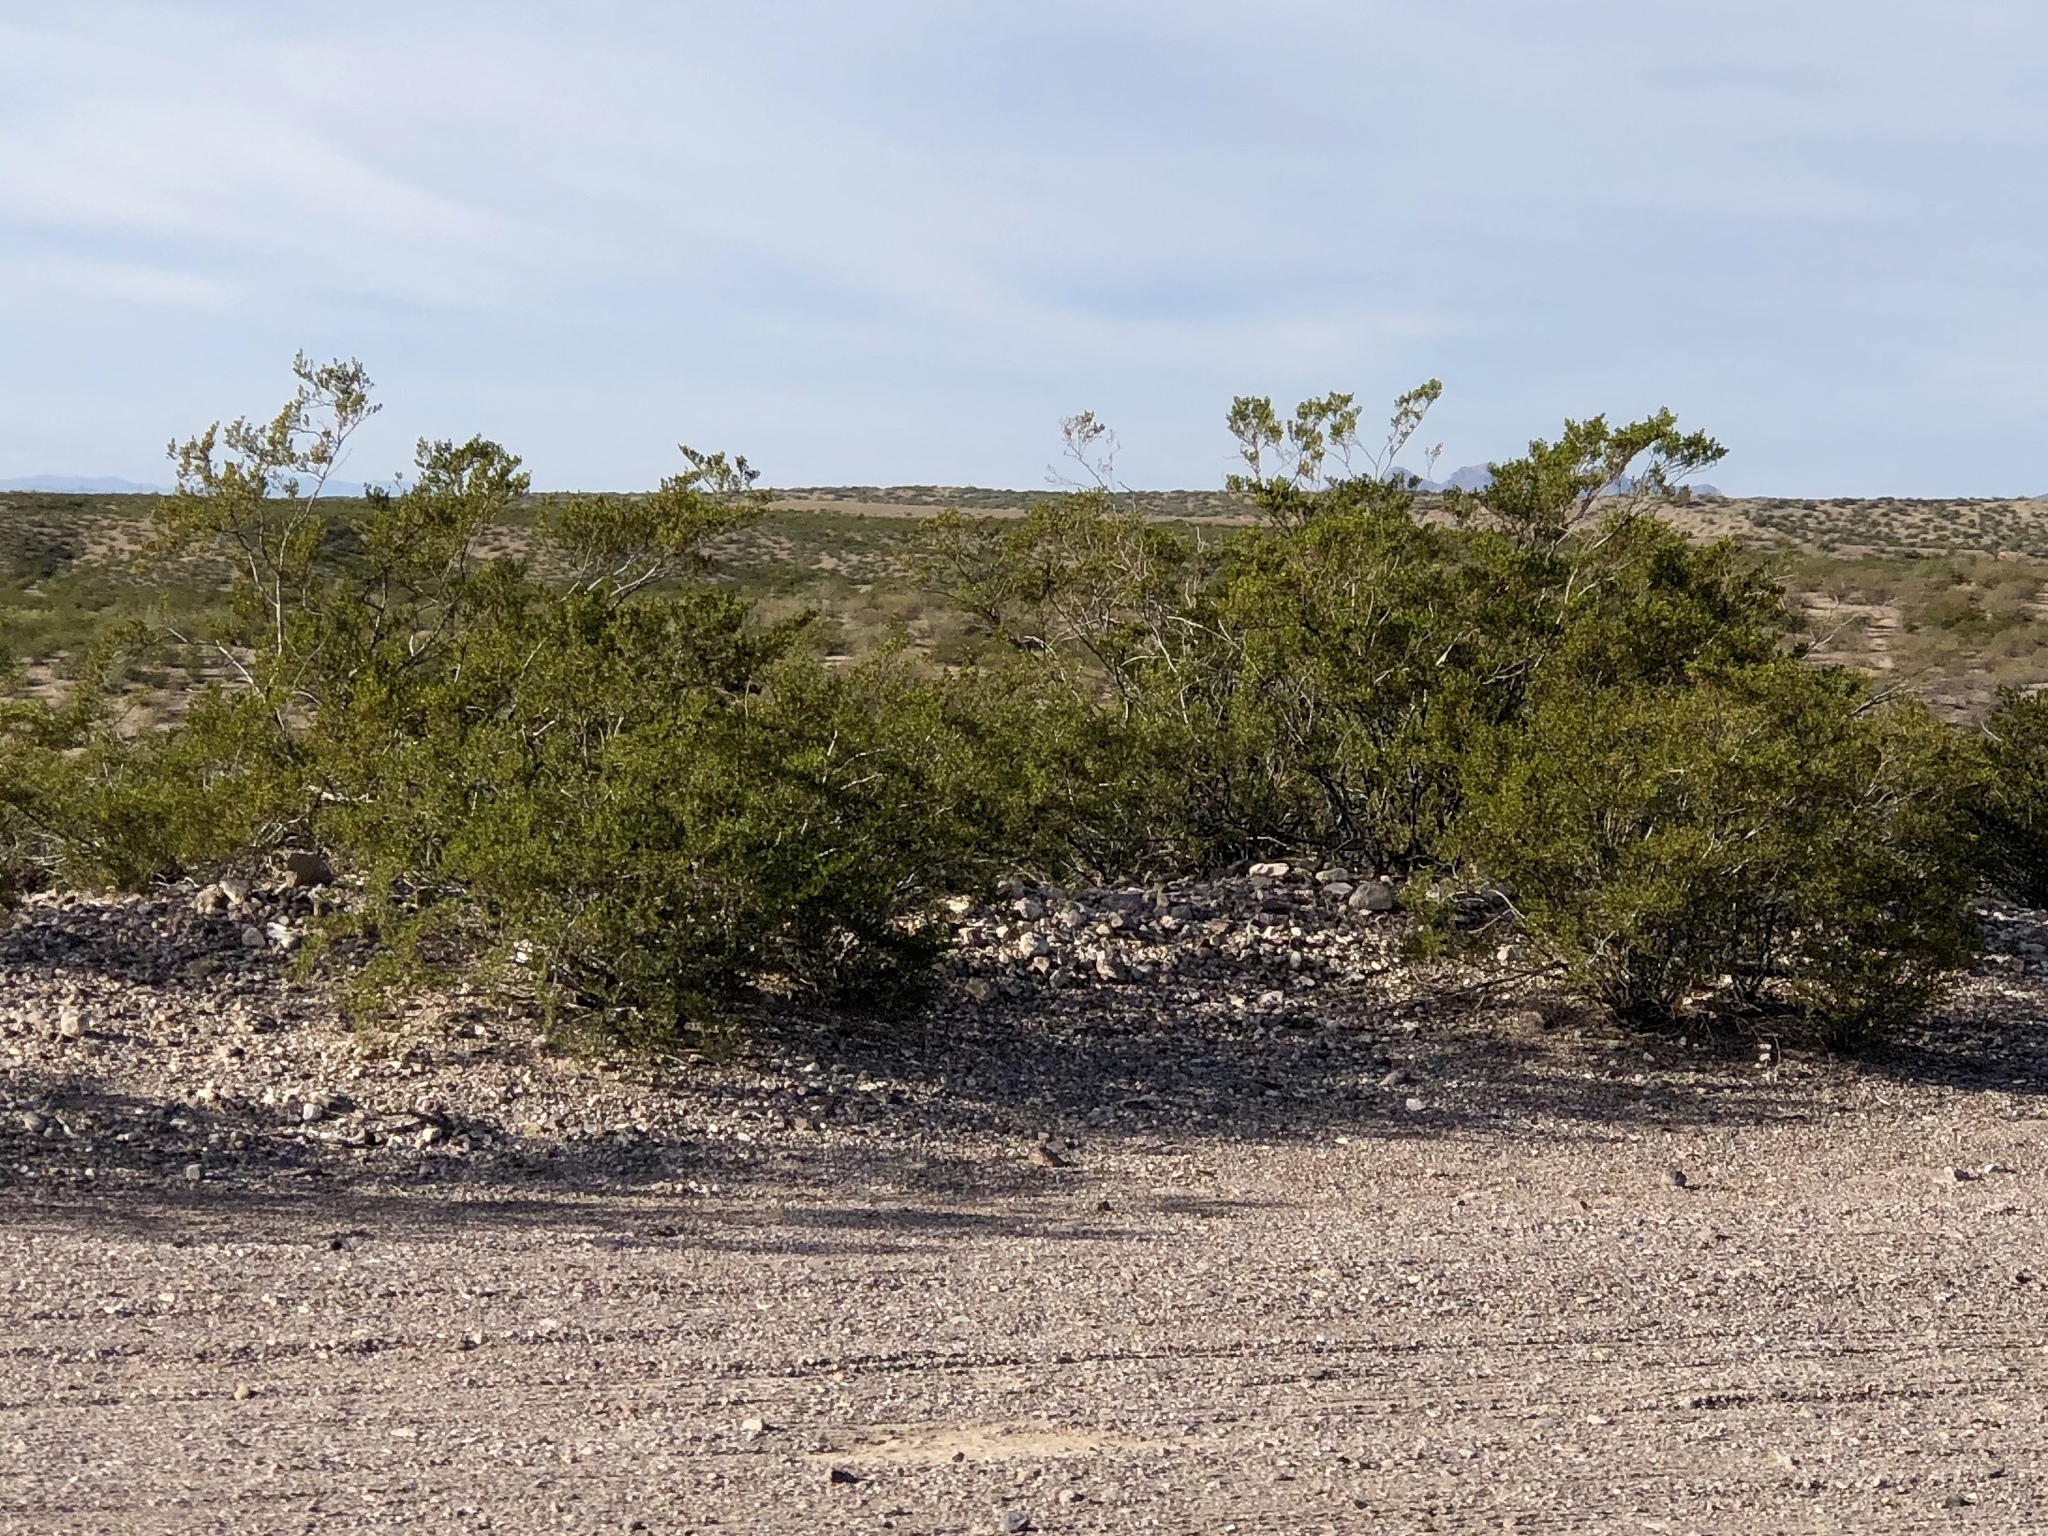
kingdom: Plantae
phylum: Tracheophyta
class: Magnoliopsida
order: Zygophyllales
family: Zygophyllaceae
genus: Larrea
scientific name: Larrea tridentata
